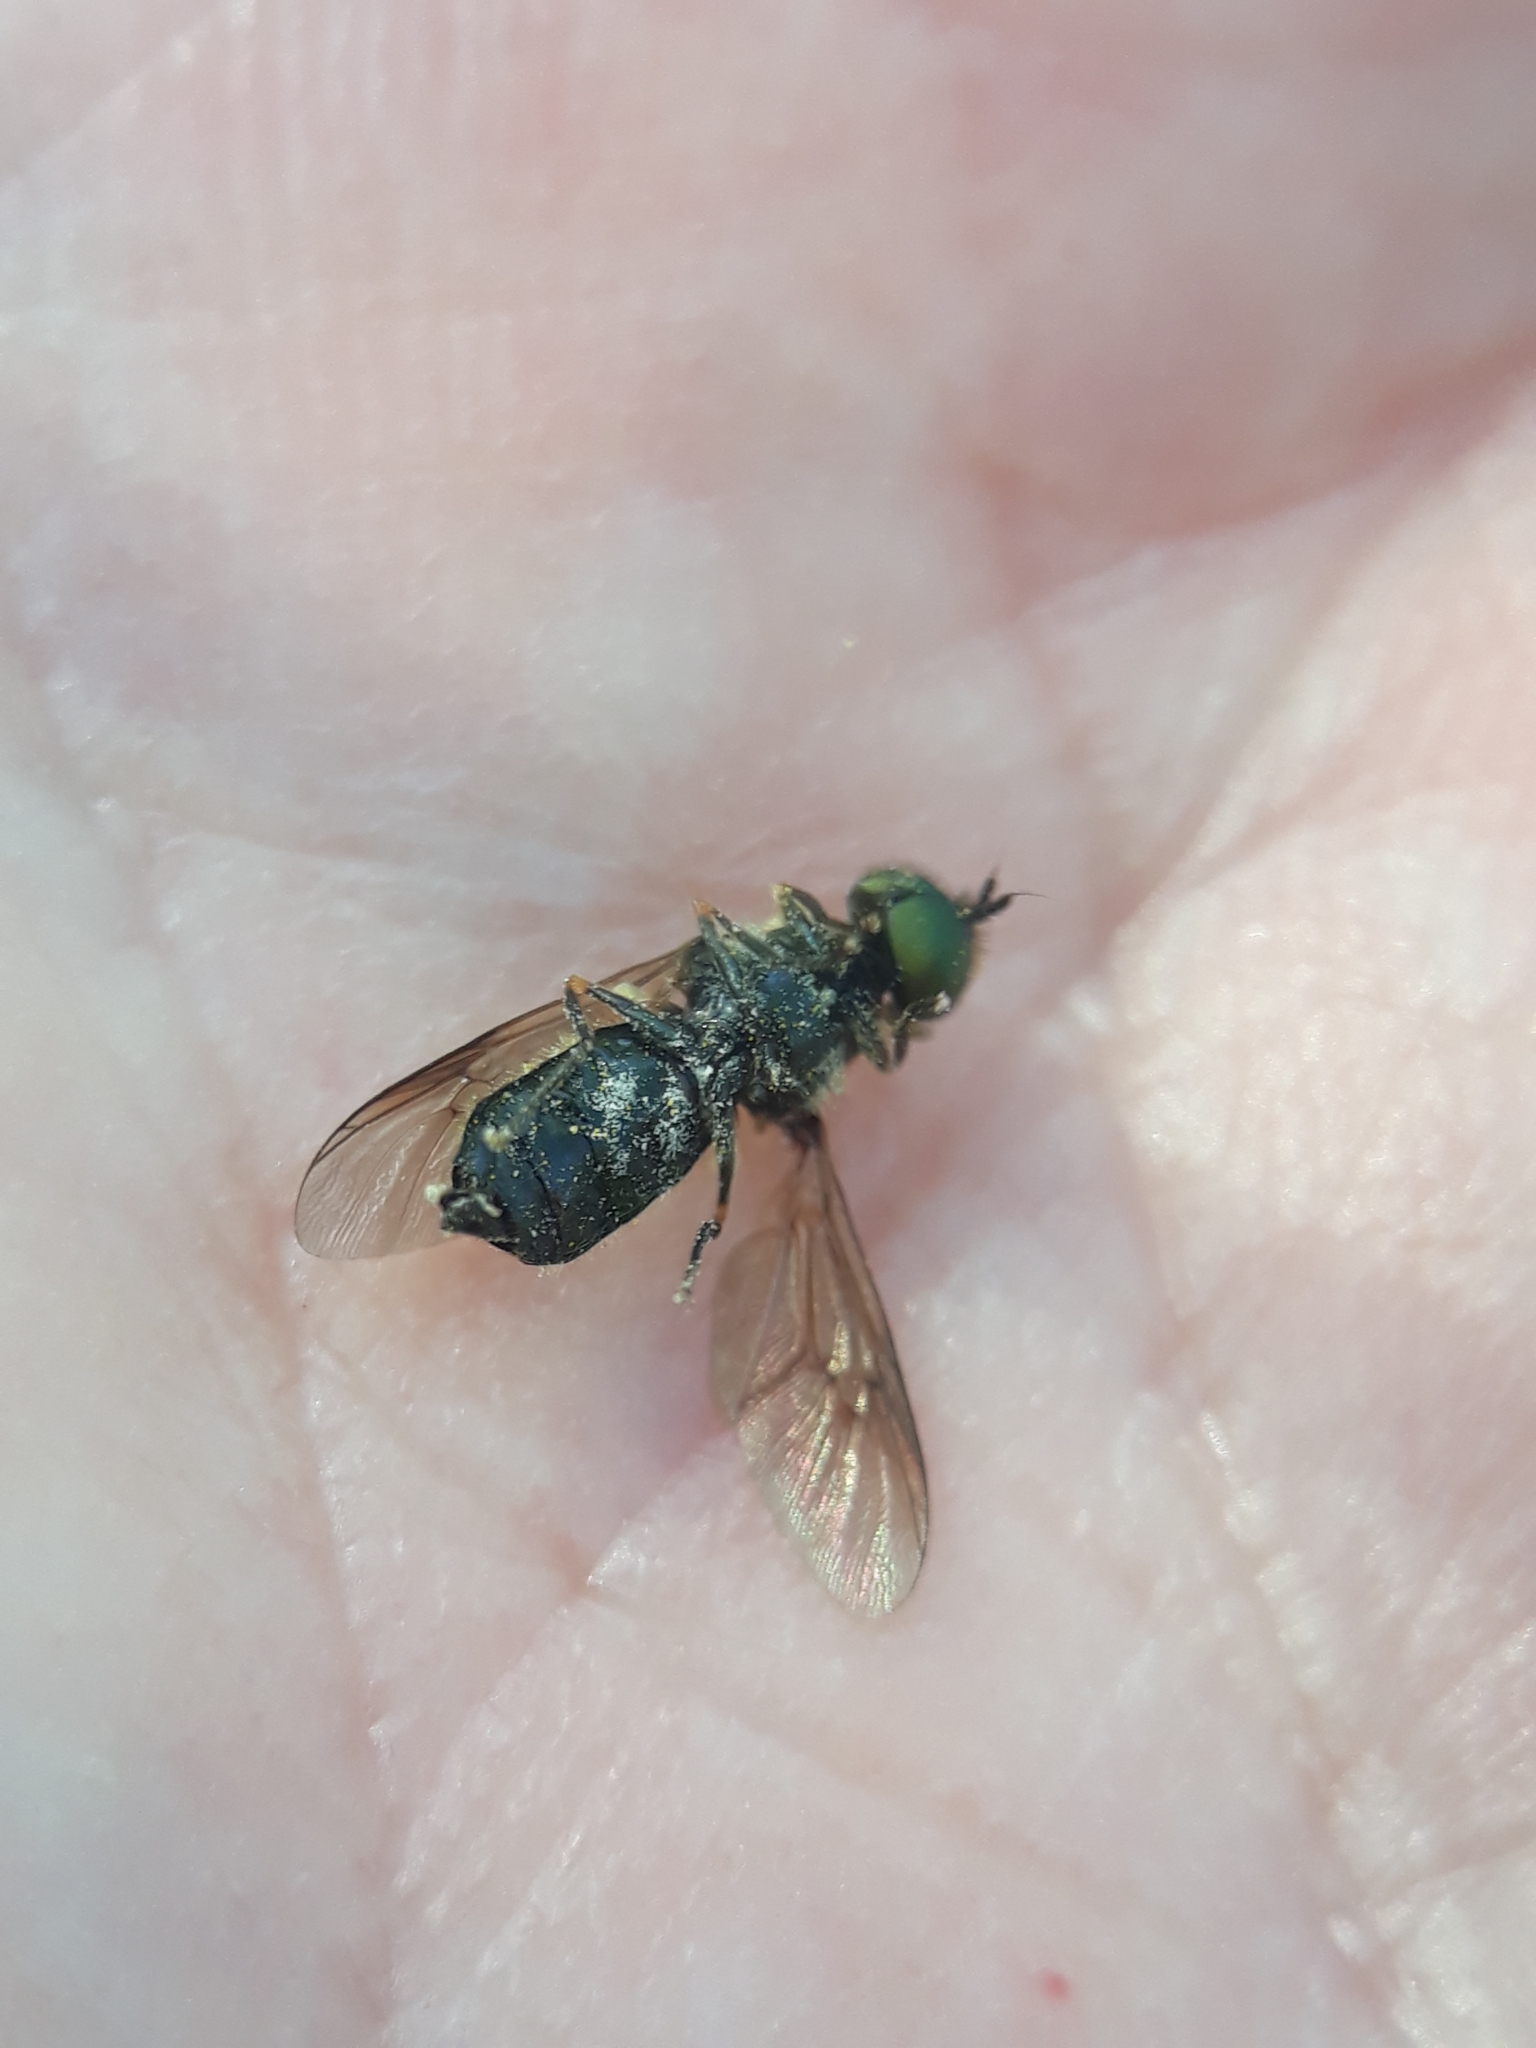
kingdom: Animalia
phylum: Arthropoda
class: Insecta
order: Diptera
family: Stratiomyidae
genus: Chloromyia
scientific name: Chloromyia formosa
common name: Soldier fly
